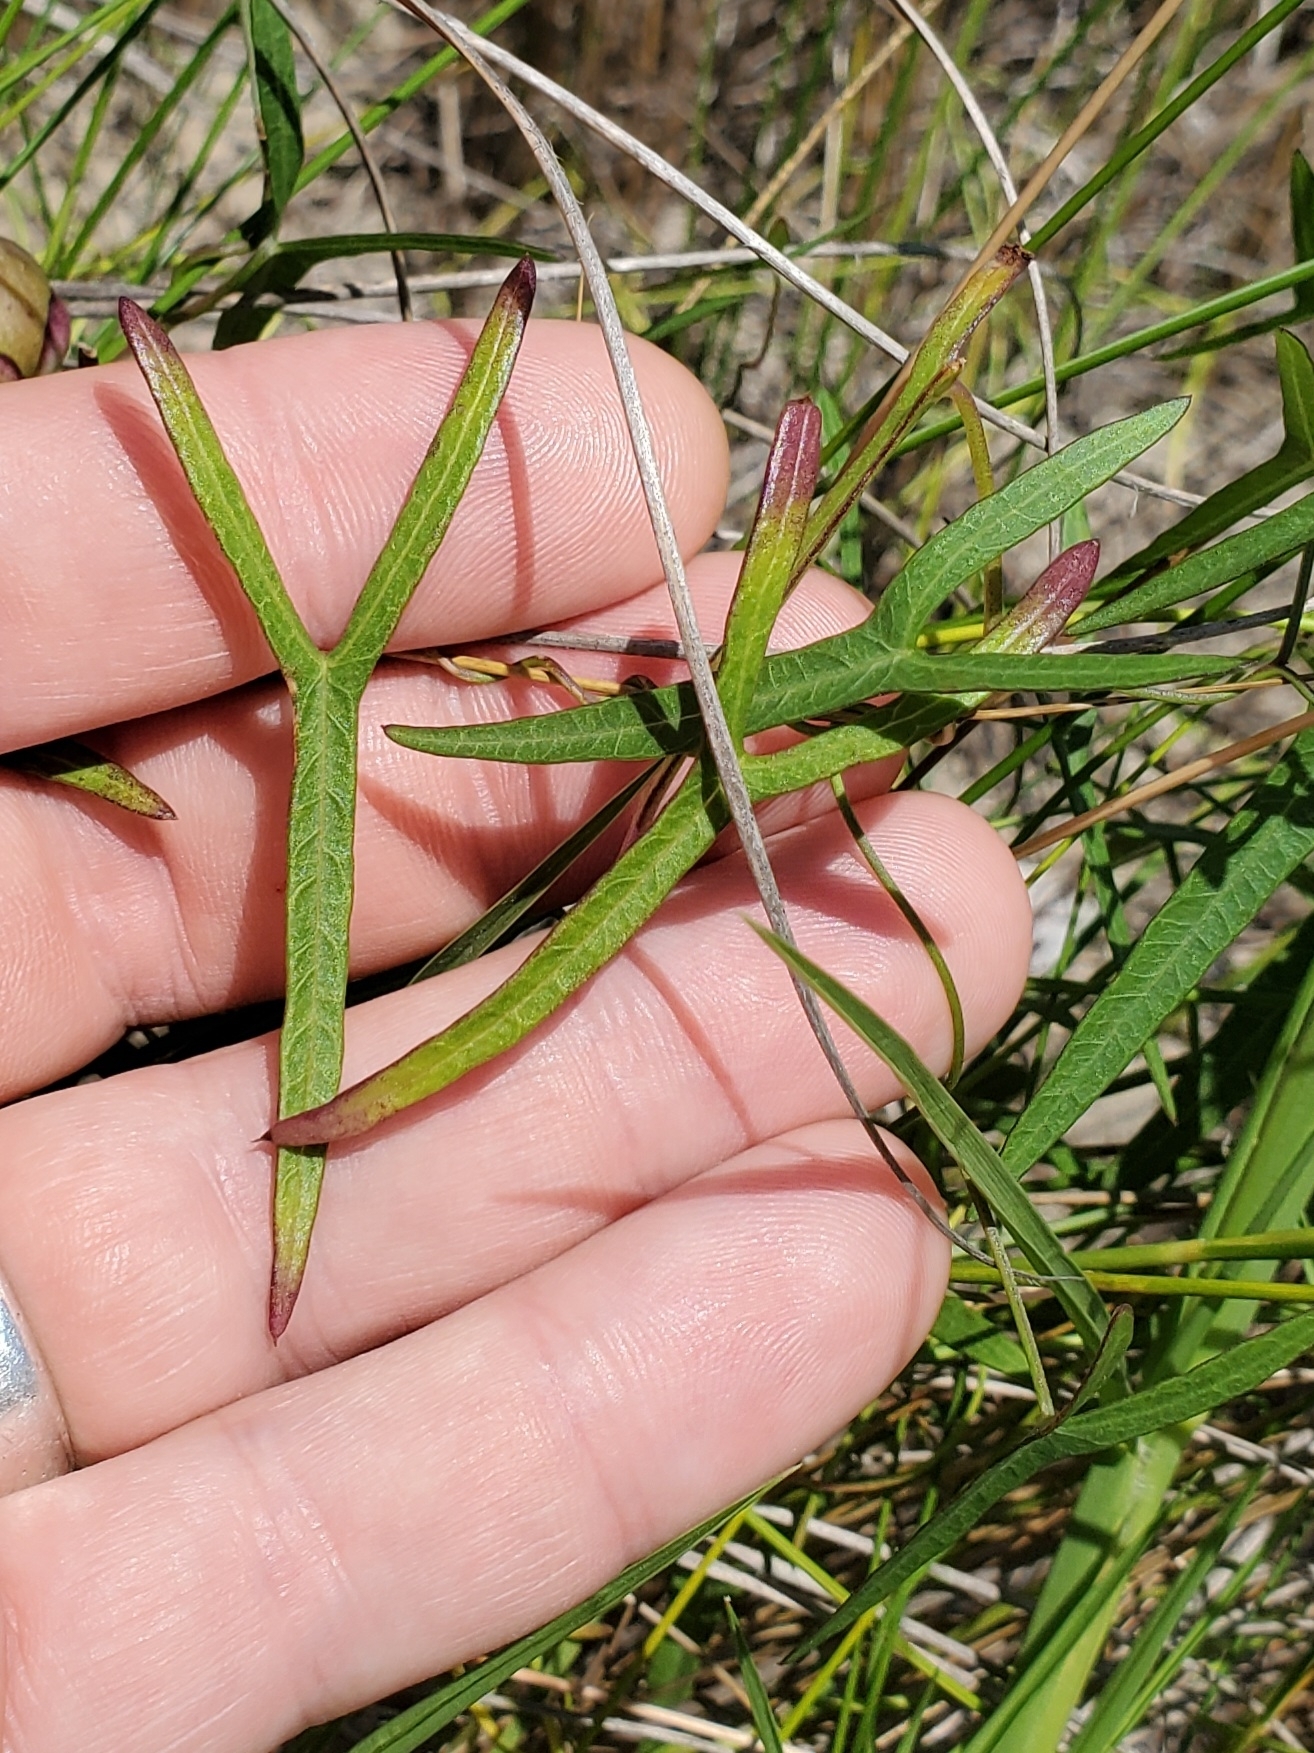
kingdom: Plantae
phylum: Tracheophyta
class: Magnoliopsida
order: Solanales
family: Convolvulaceae
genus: Ipomoea
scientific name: Ipomoea sagittata
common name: Saltmarsh morning glory
